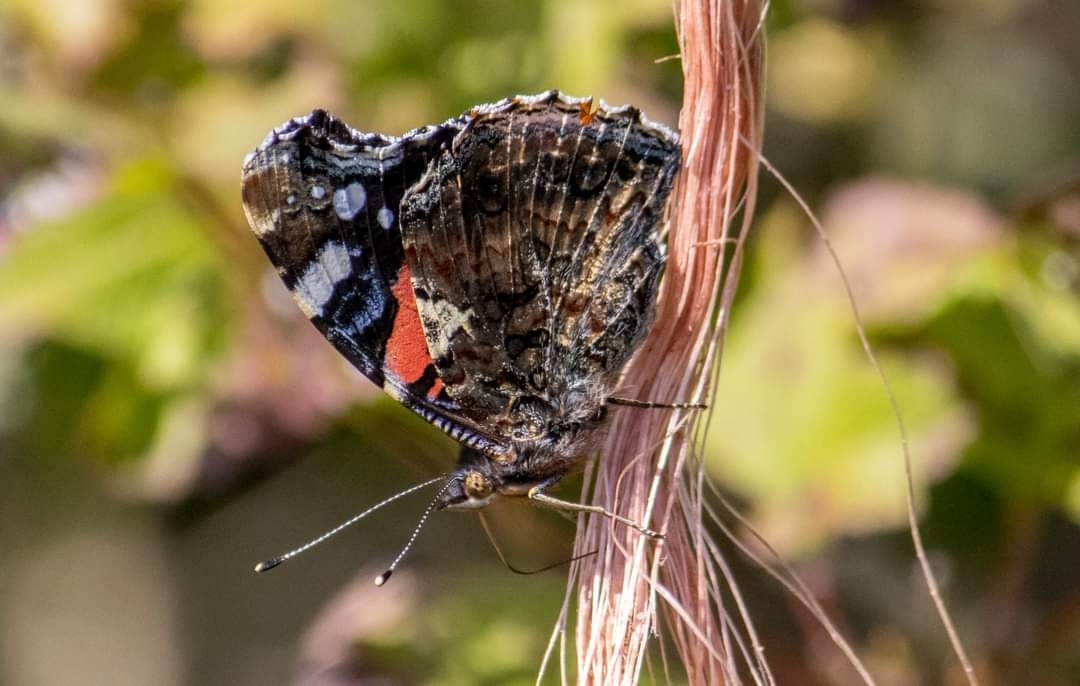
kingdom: Animalia
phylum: Arthropoda
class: Insecta
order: Lepidoptera
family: Nymphalidae
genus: Vanessa
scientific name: Vanessa atalanta
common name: Red admiral
